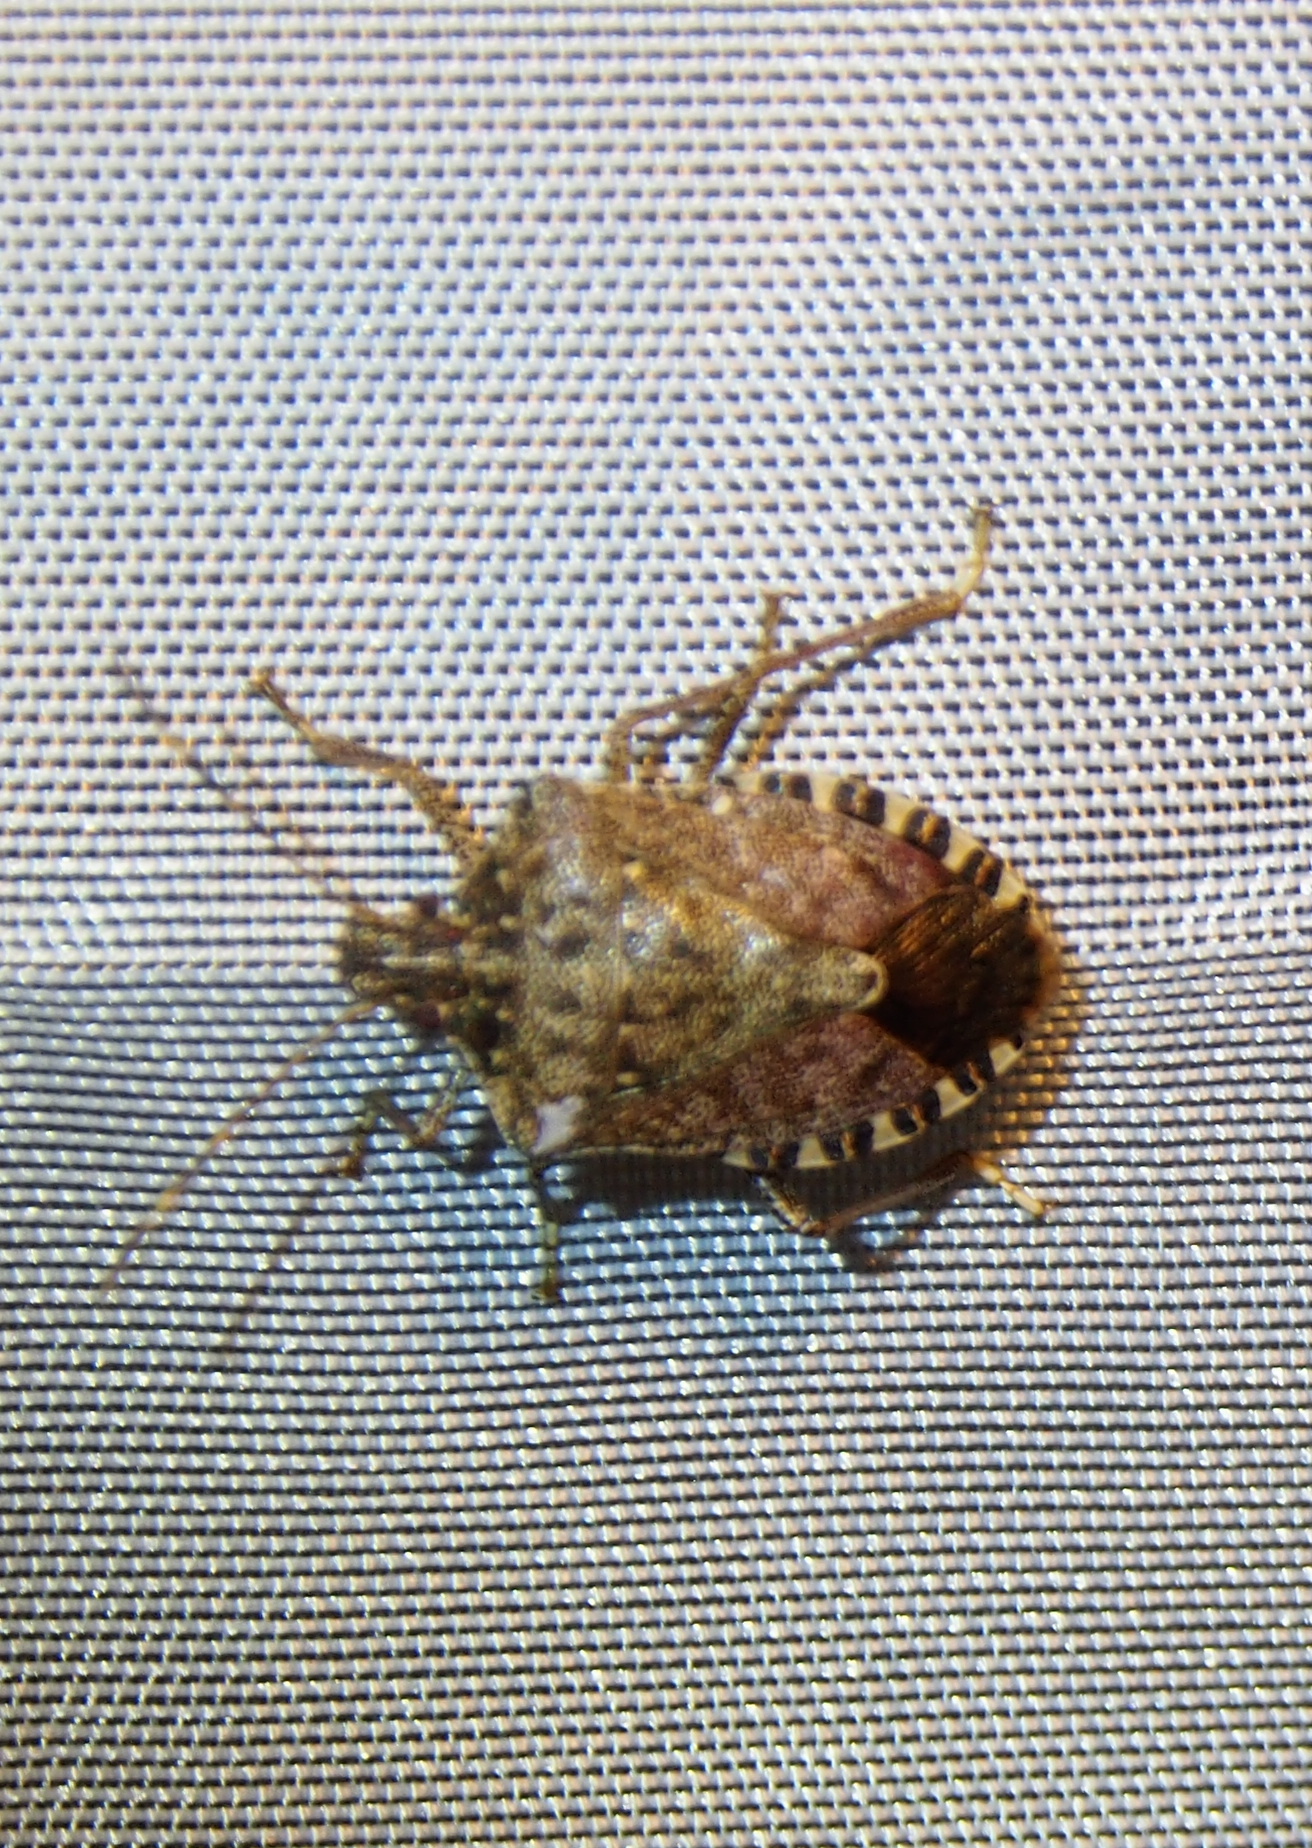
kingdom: Animalia
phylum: Arthropoda
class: Insecta
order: Hemiptera
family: Pentatomidae
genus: Halyomorpha
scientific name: Halyomorpha halys
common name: Brown marmorated stink bug
